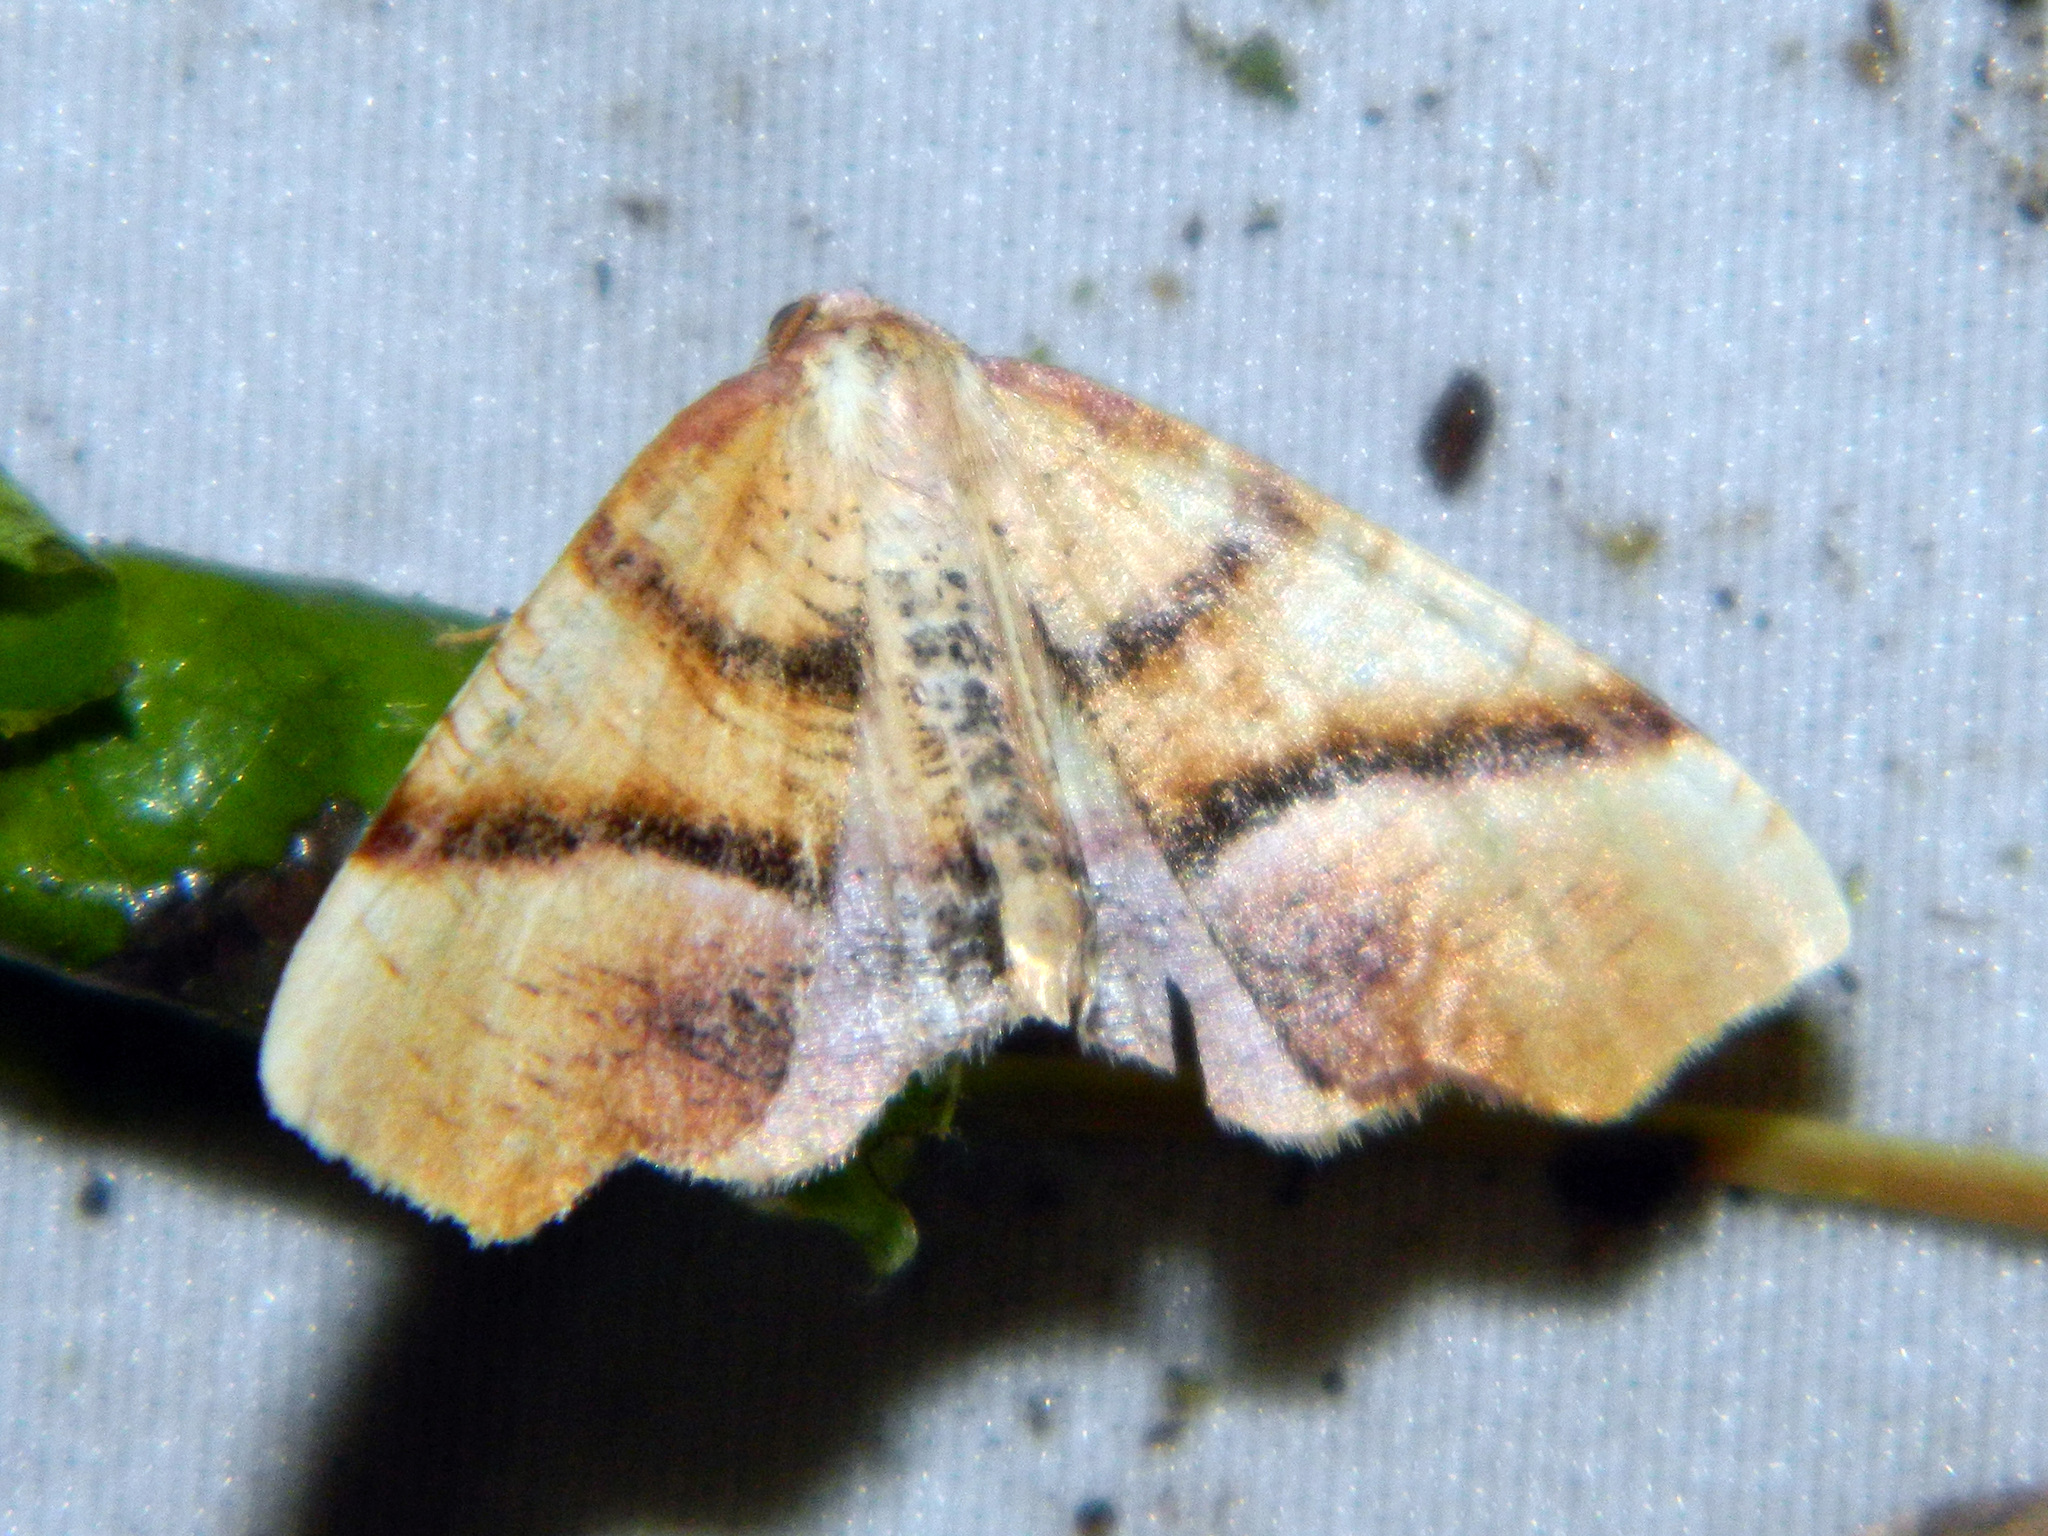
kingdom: Animalia
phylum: Arthropoda
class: Insecta
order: Lepidoptera
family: Geometridae
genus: Plagodis
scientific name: Plagodis phlogosaria
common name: Straight-lined plagodis
